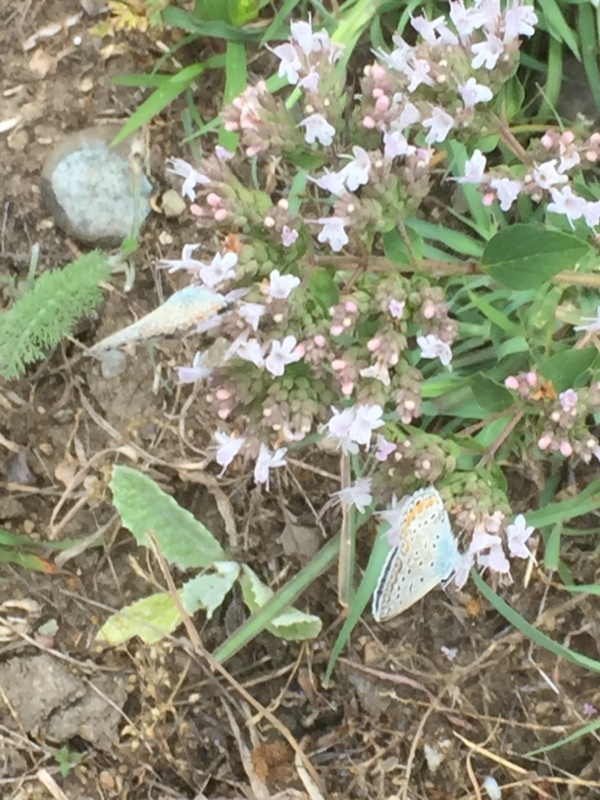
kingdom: Animalia
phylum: Arthropoda
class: Insecta
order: Lepidoptera
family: Lycaenidae
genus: Polyommatus
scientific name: Polyommatus icarus
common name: Common blue
